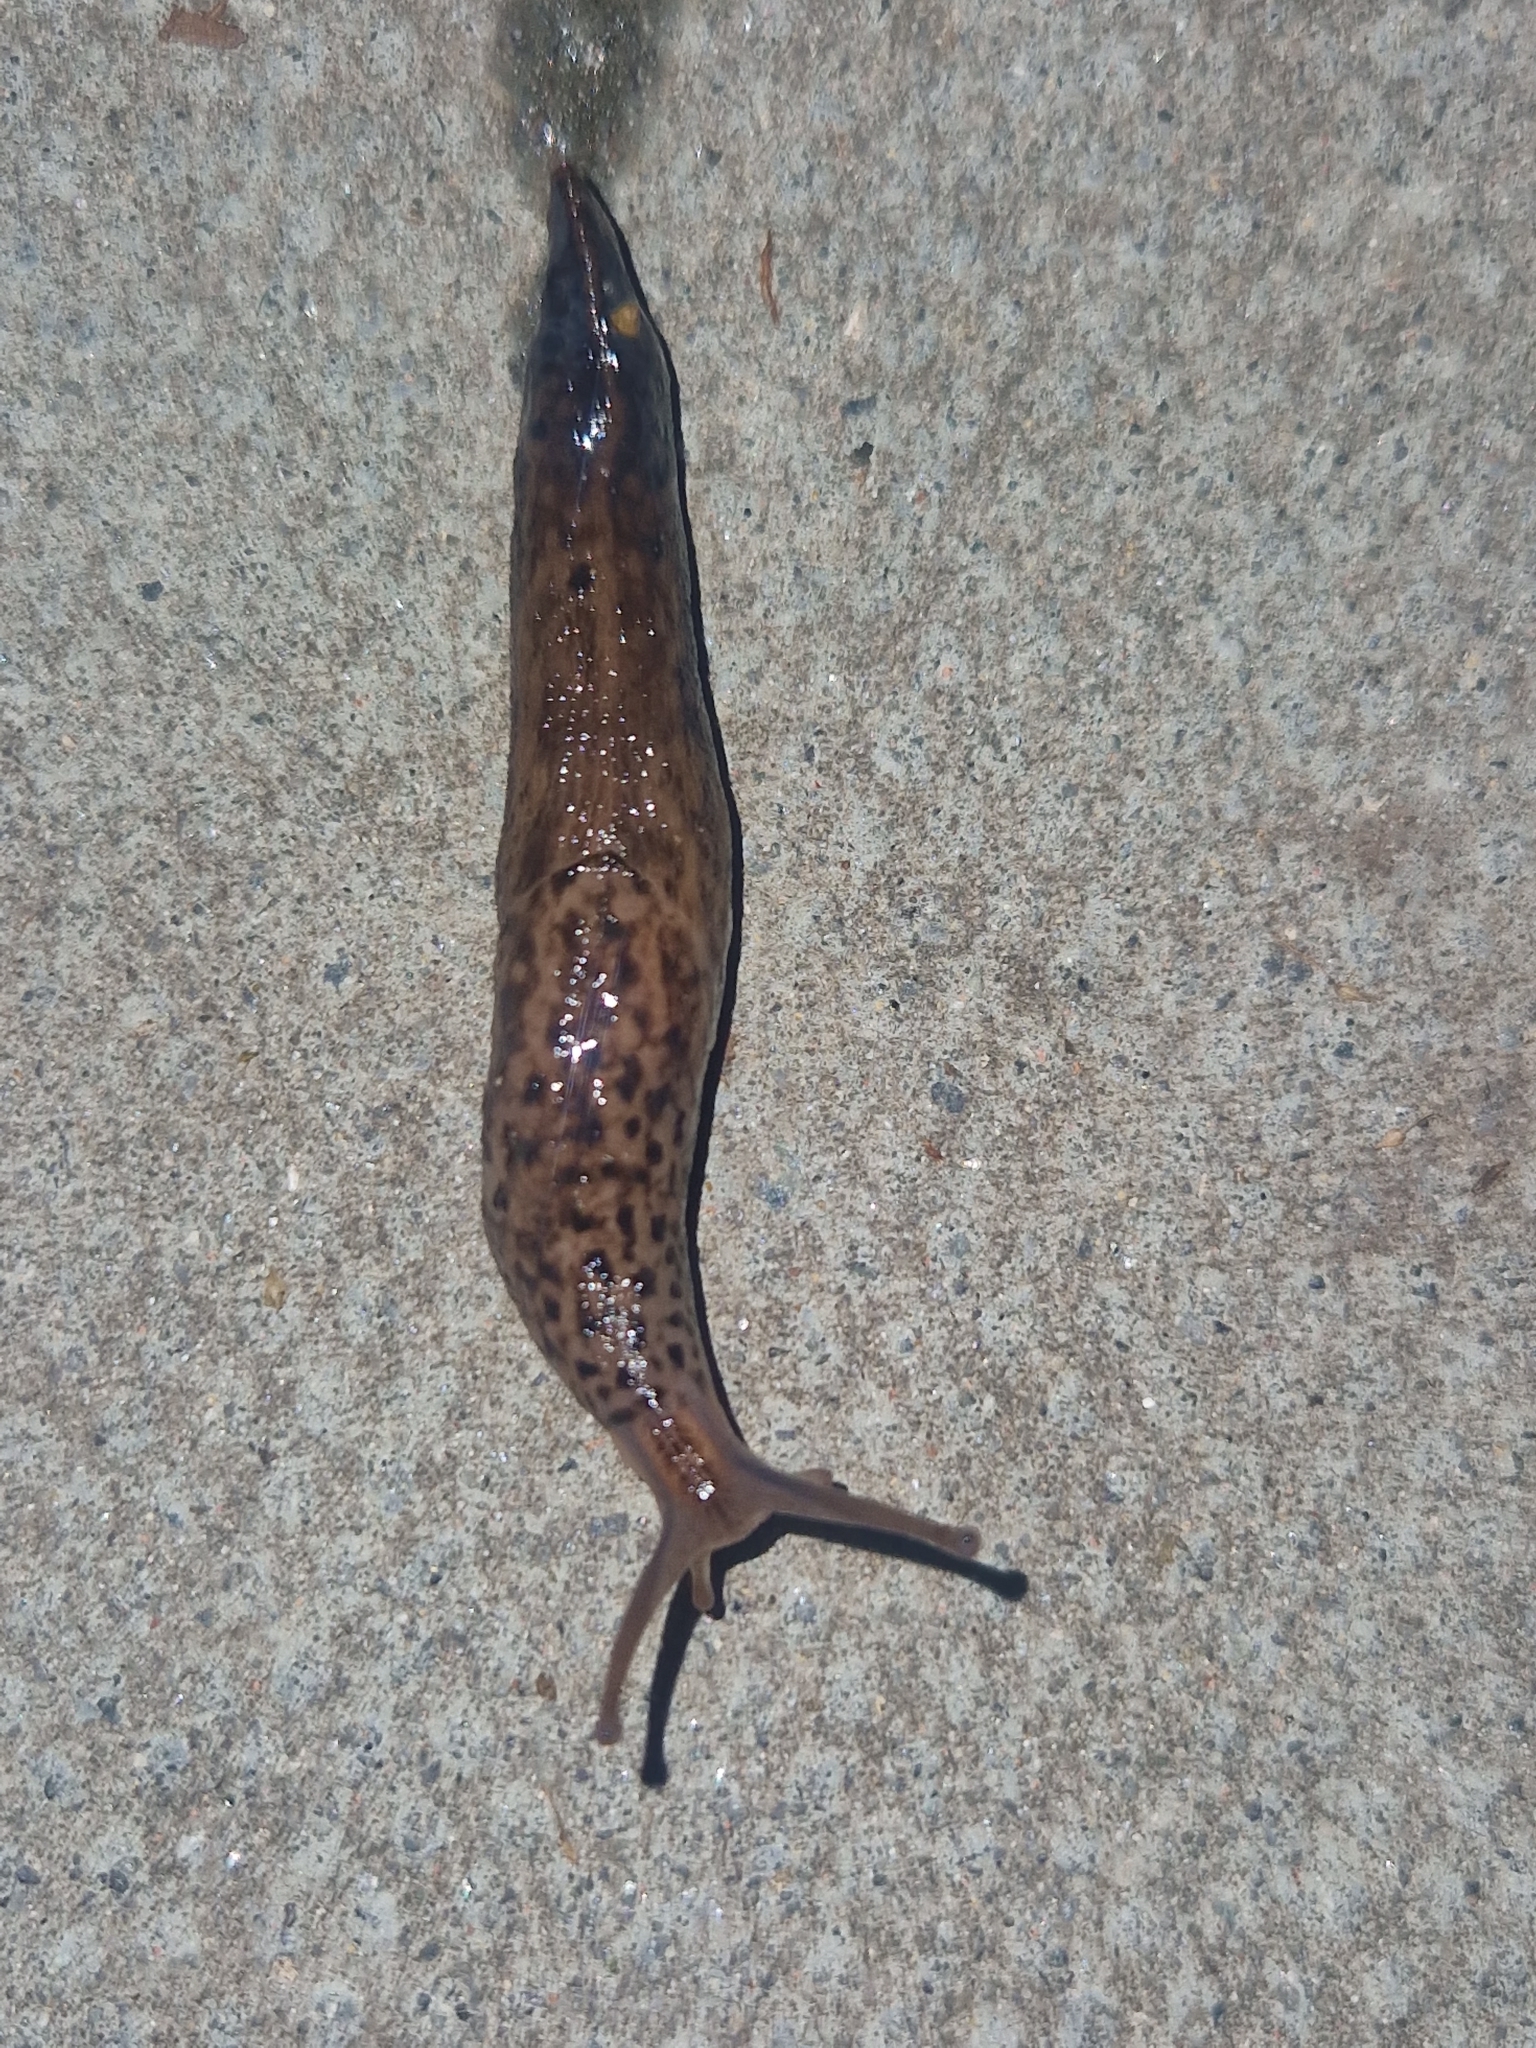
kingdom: Animalia
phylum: Mollusca
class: Gastropoda
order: Stylommatophora
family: Limacidae
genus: Limax
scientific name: Limax maximus
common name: Great grey slug
